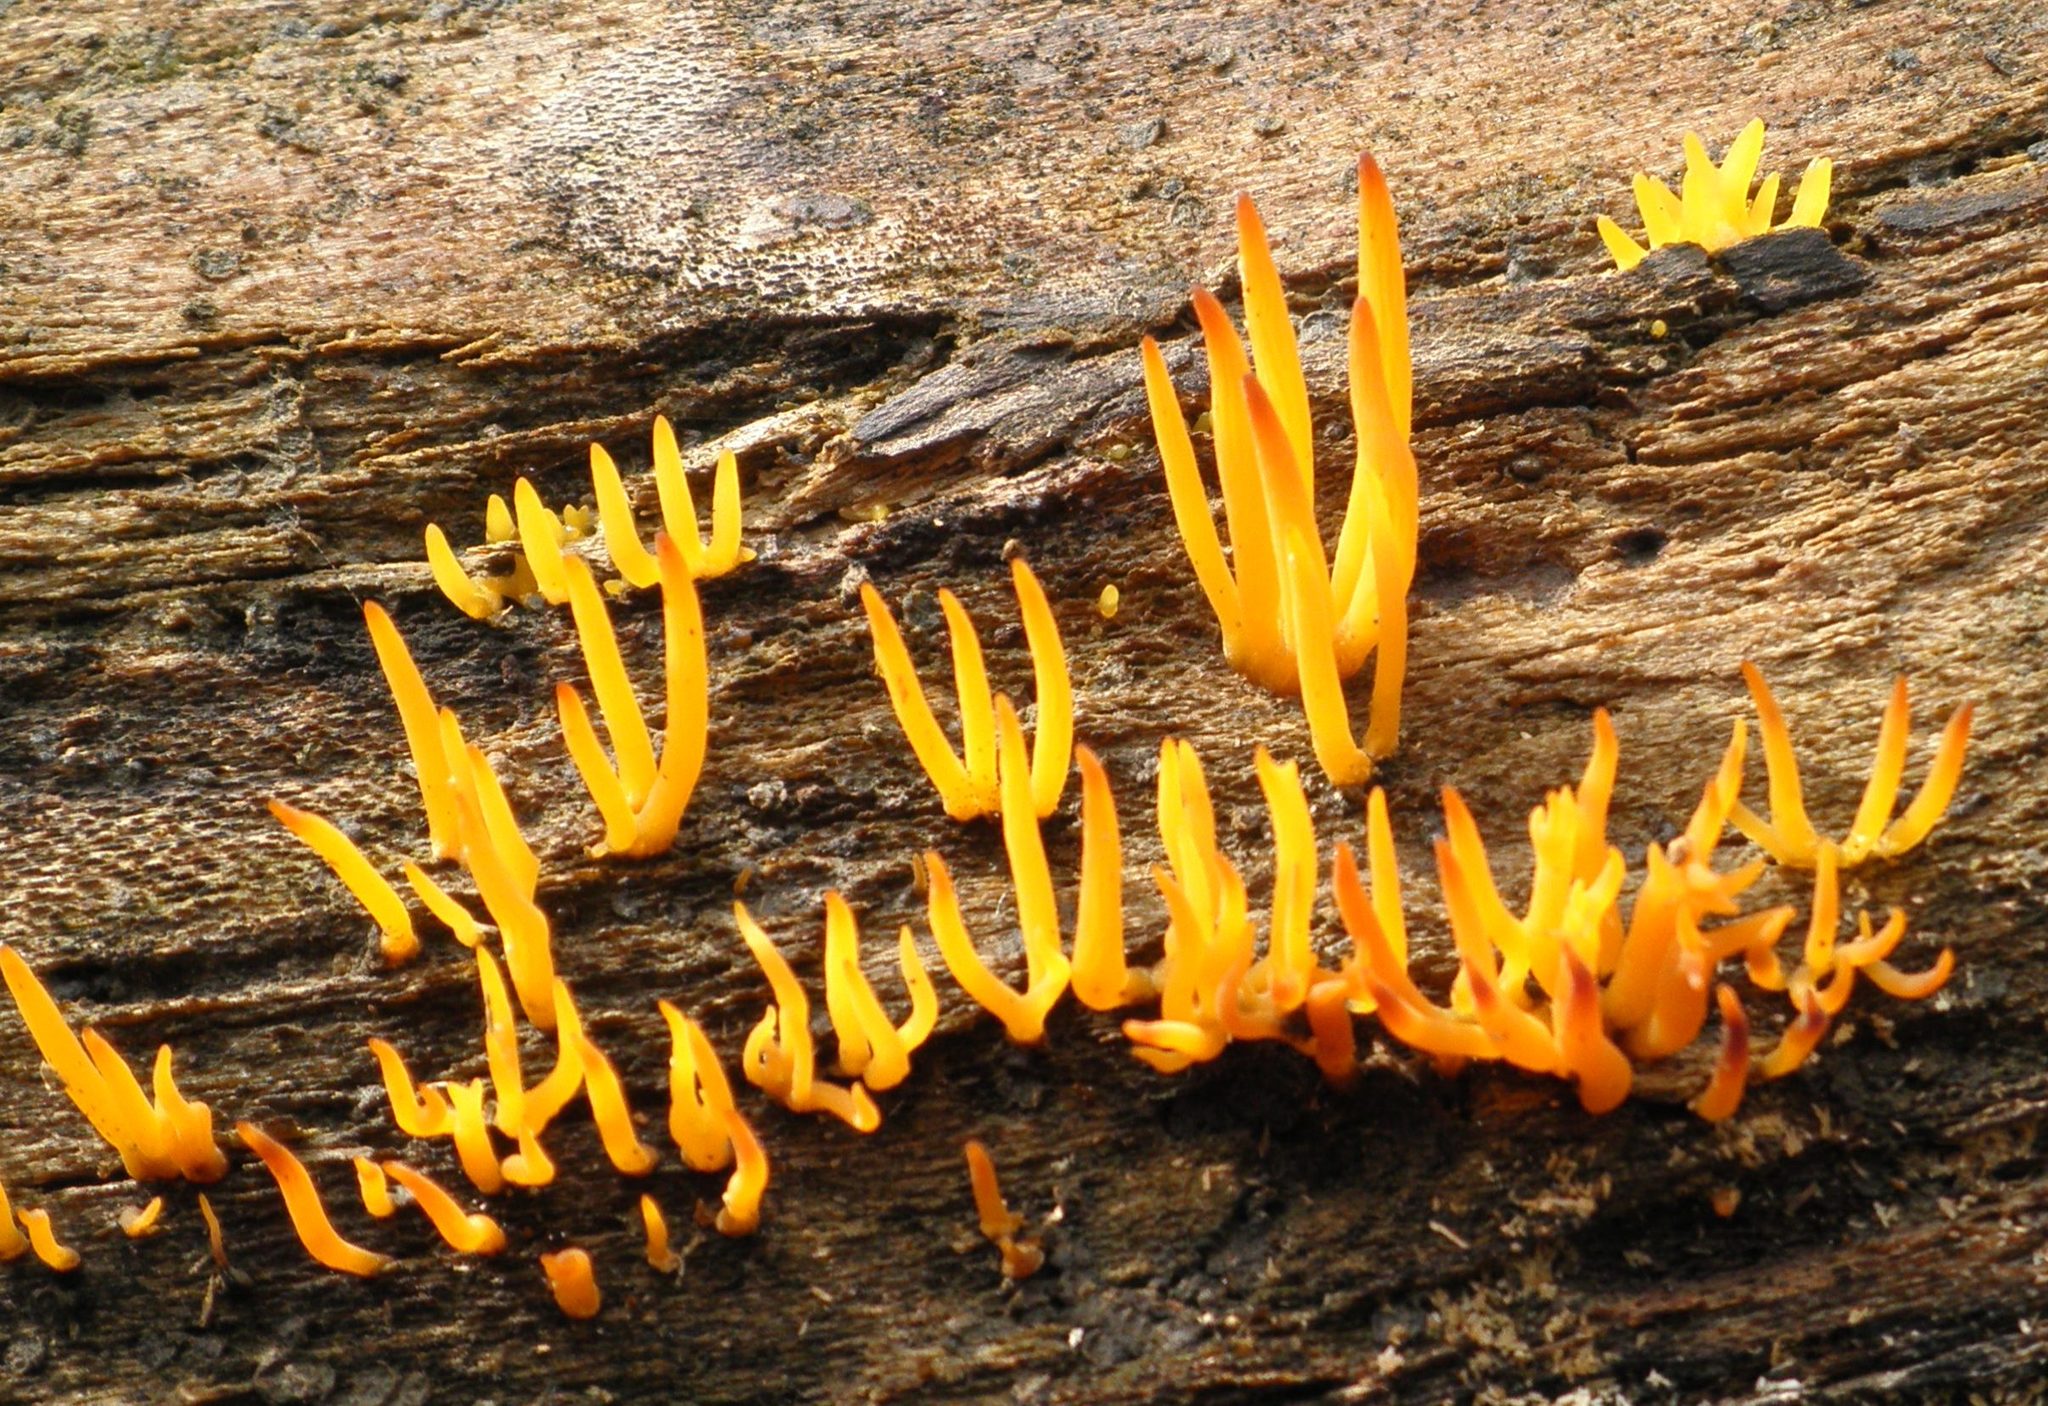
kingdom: Fungi
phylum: Basidiomycota
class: Dacrymycetes
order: Dacrymycetales
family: Dacrymycetaceae
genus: Calocera
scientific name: Calocera cornea
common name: Small stagshorn
